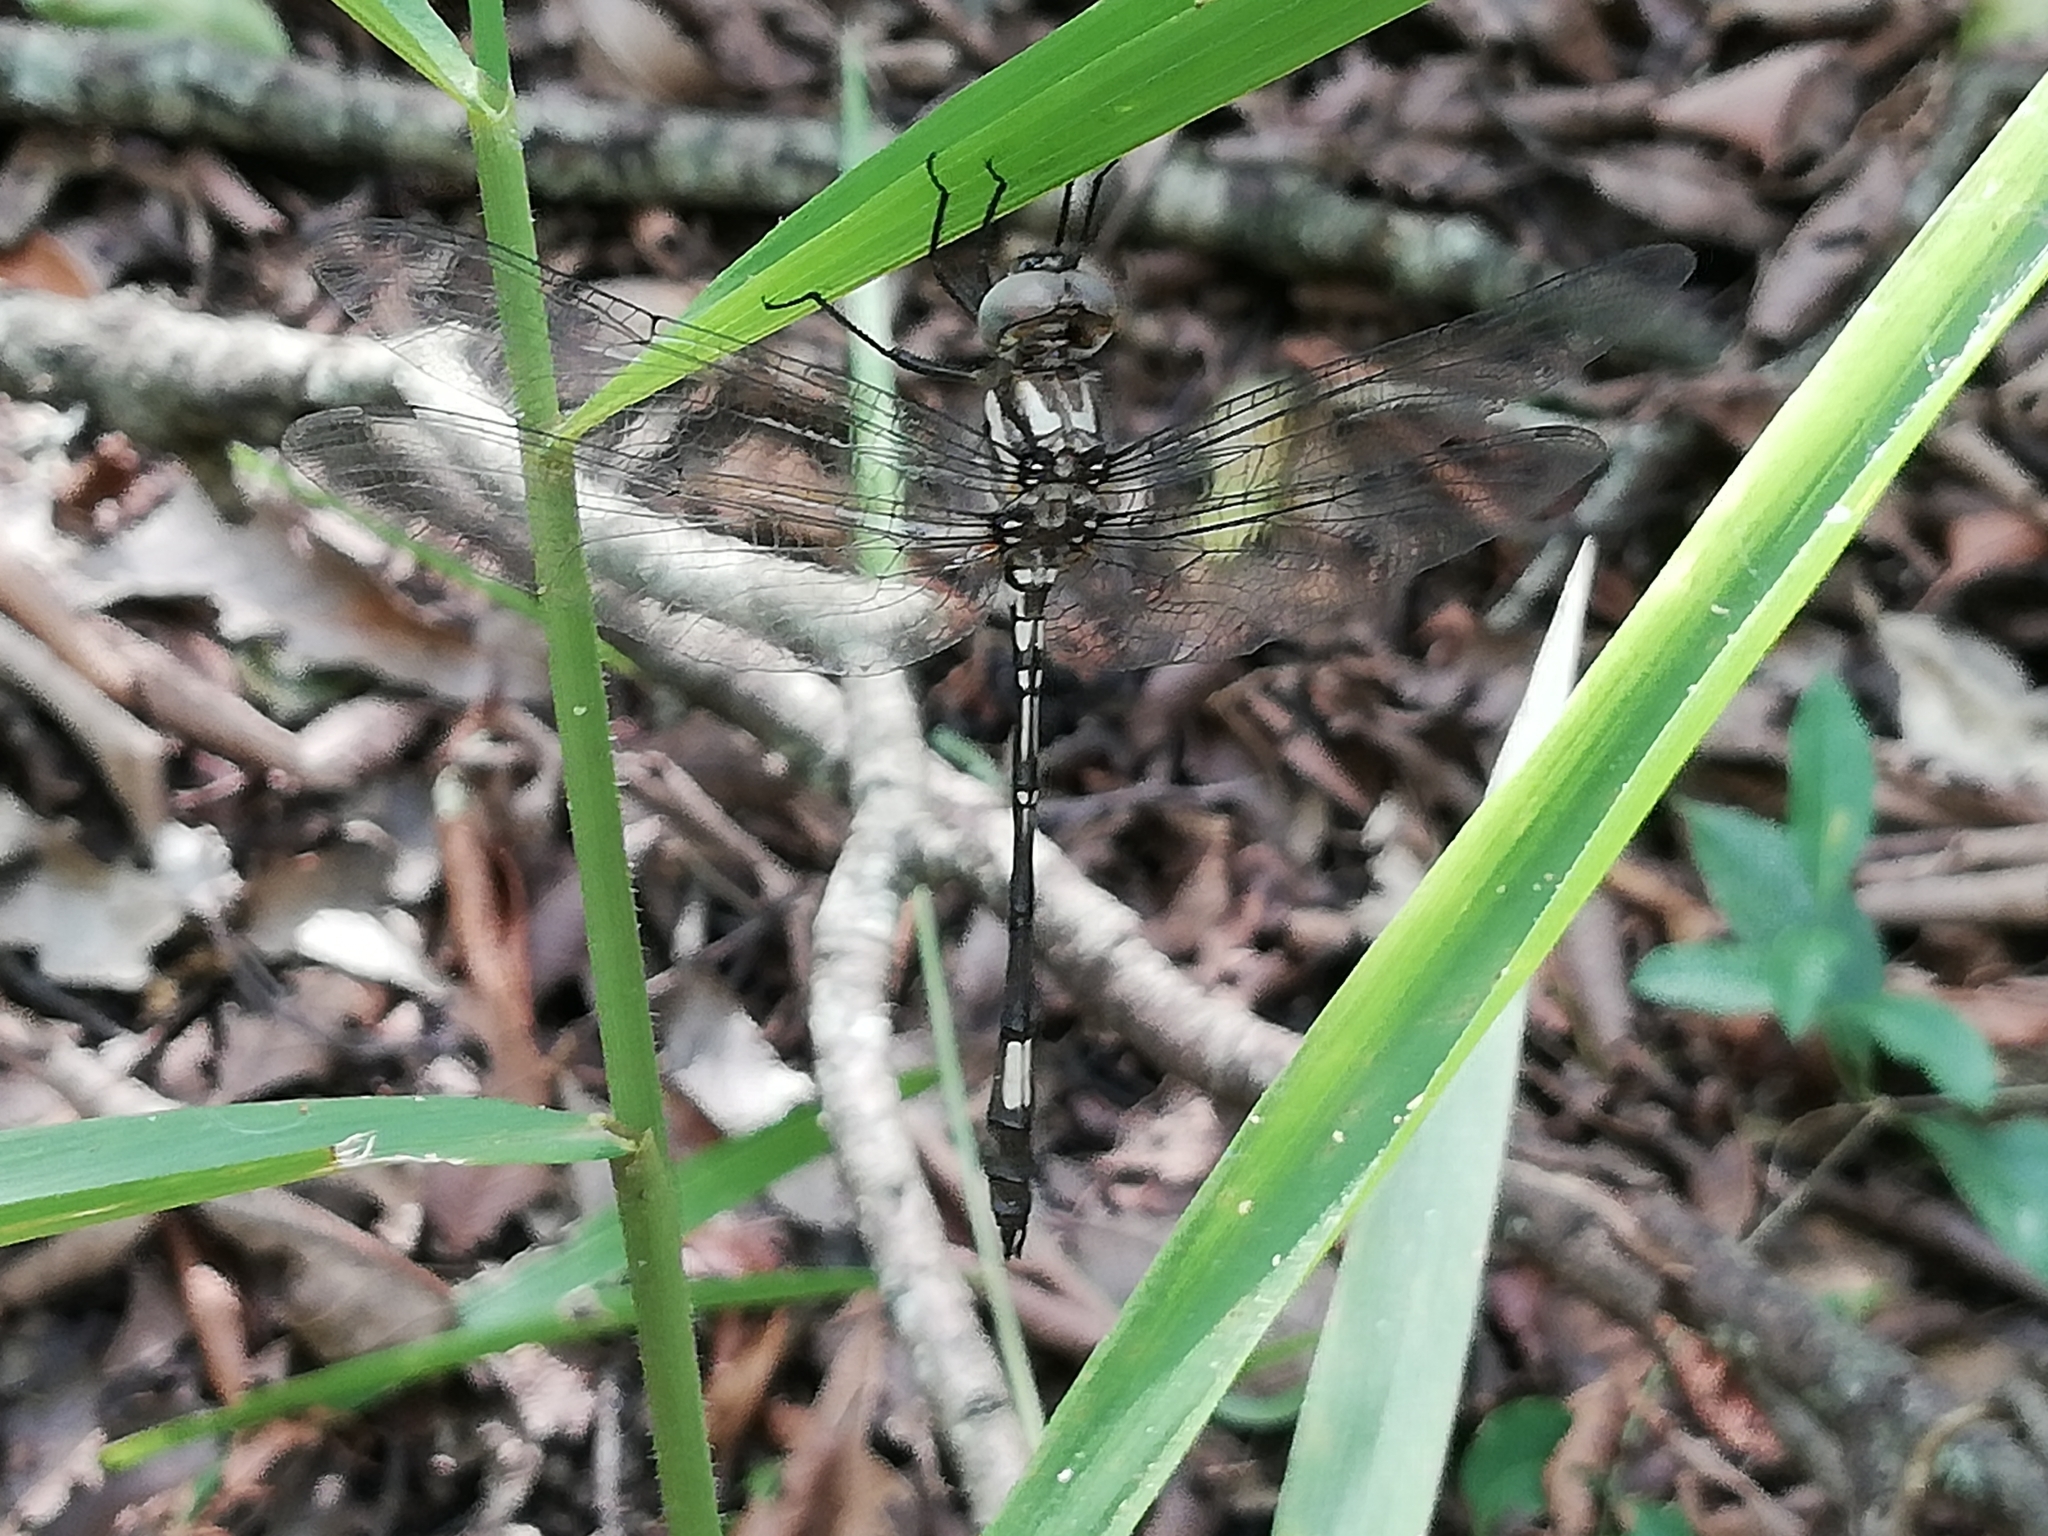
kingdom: Animalia
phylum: Arthropoda
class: Insecta
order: Odonata
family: Libellulidae
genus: Brechmorhoga
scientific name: Brechmorhoga mendax
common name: Pale-faced clubskimmer
